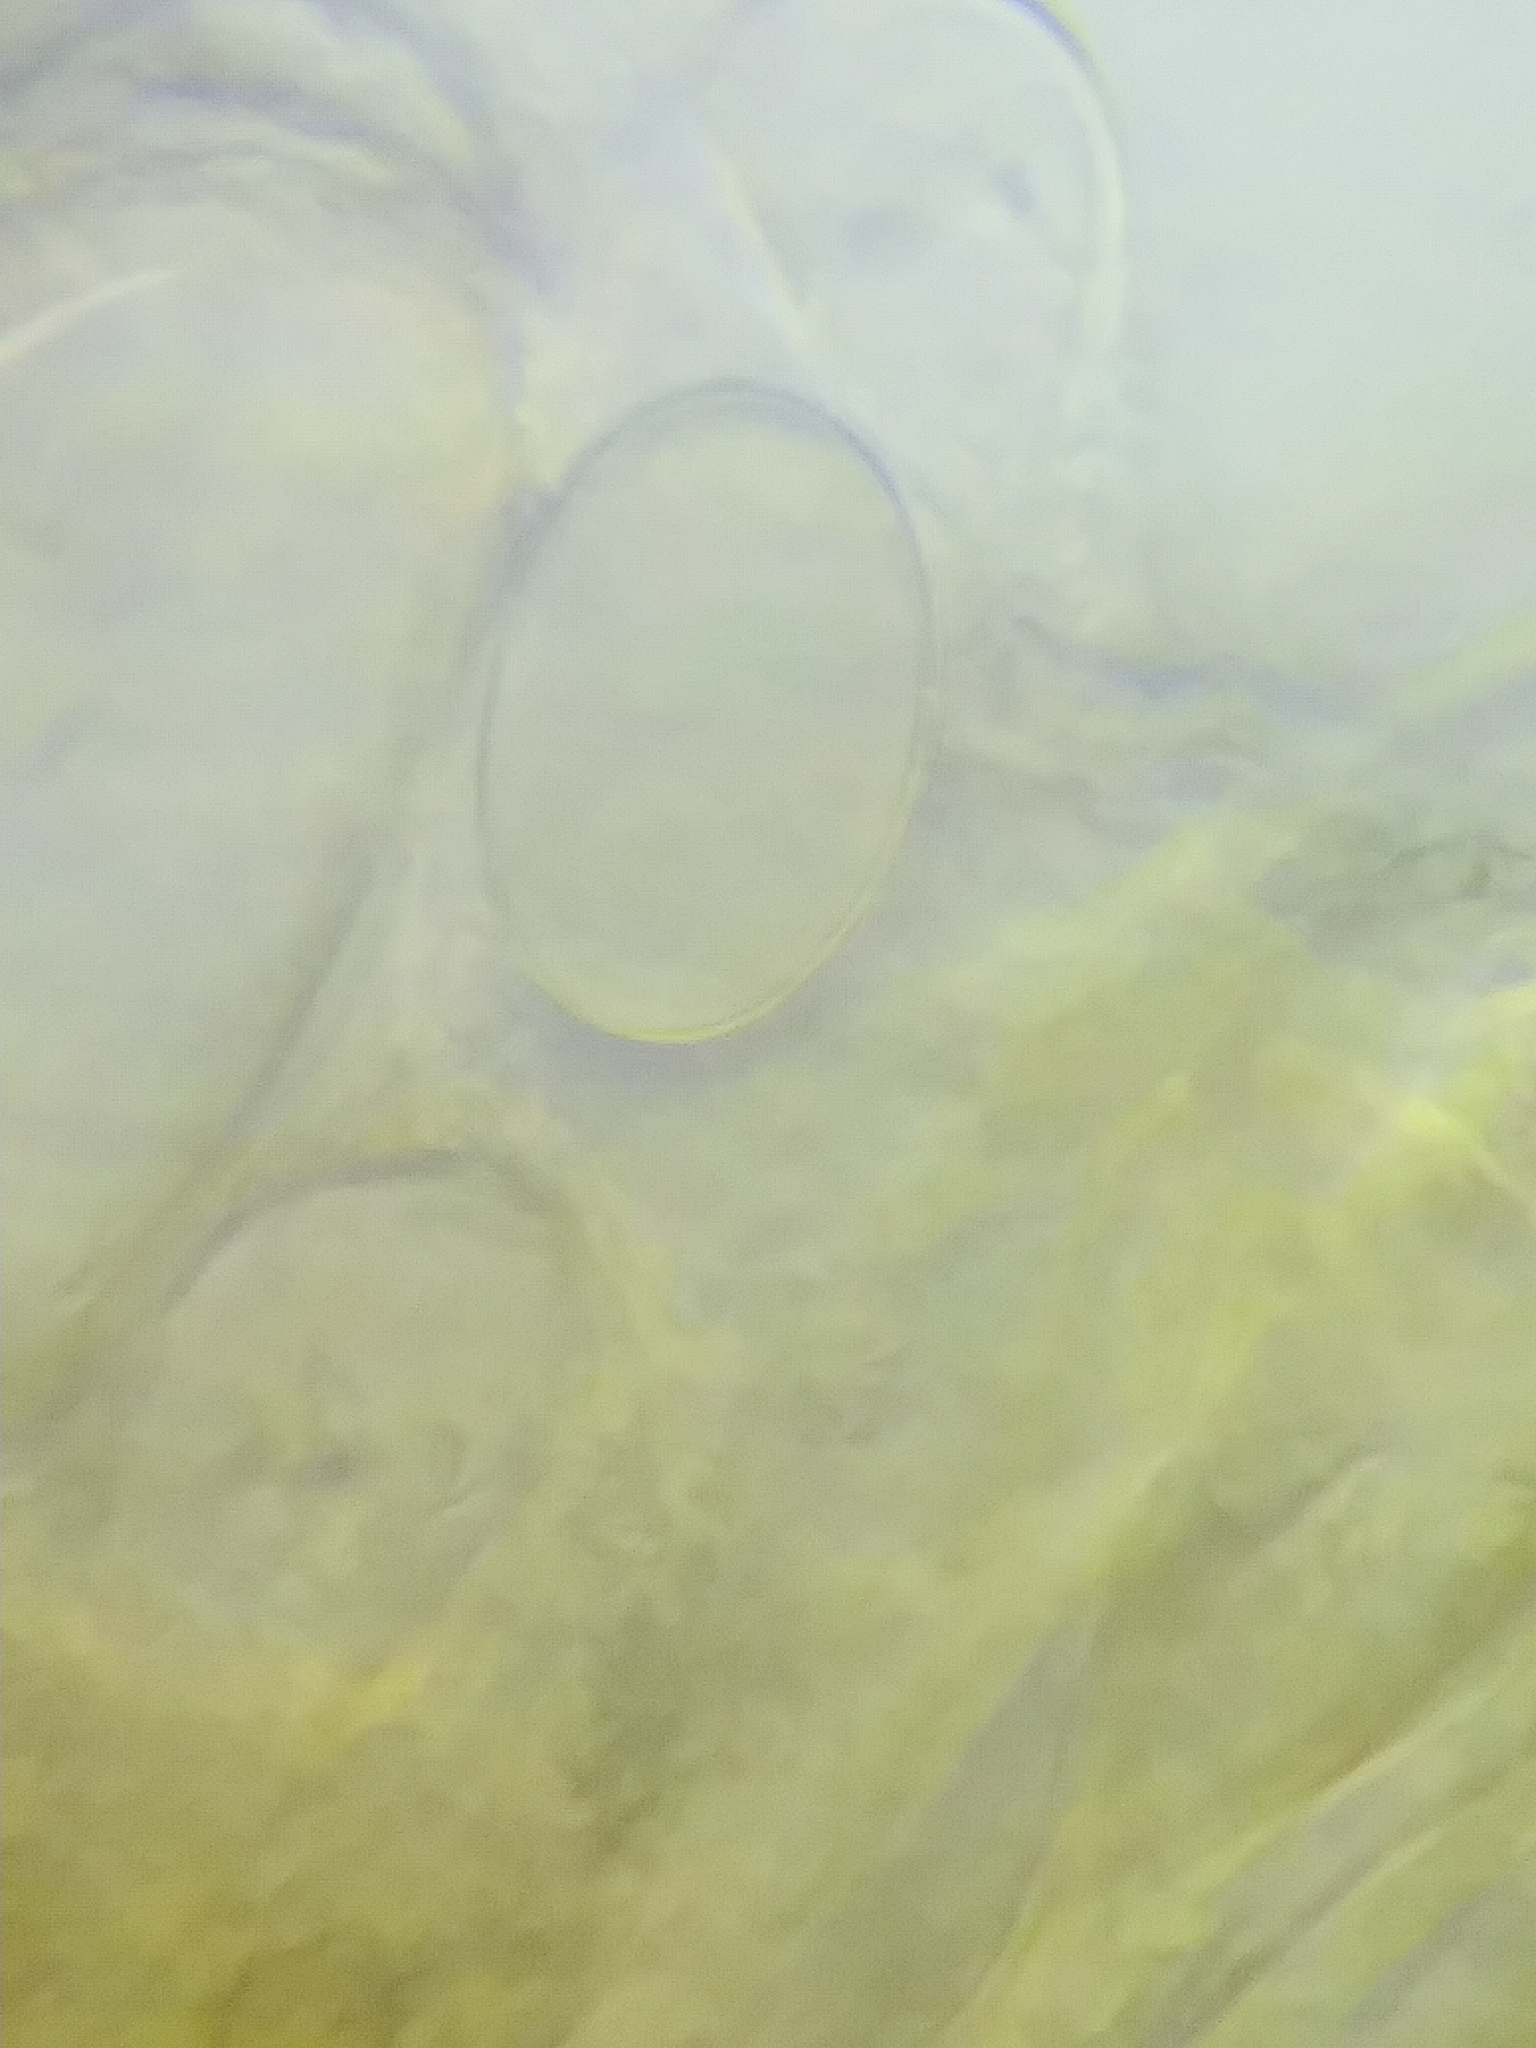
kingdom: Fungi
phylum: Ascomycota
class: Pezizomycetes
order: Pezizales
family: Morchellaceae
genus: Morchella
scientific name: Morchella diminutiva
